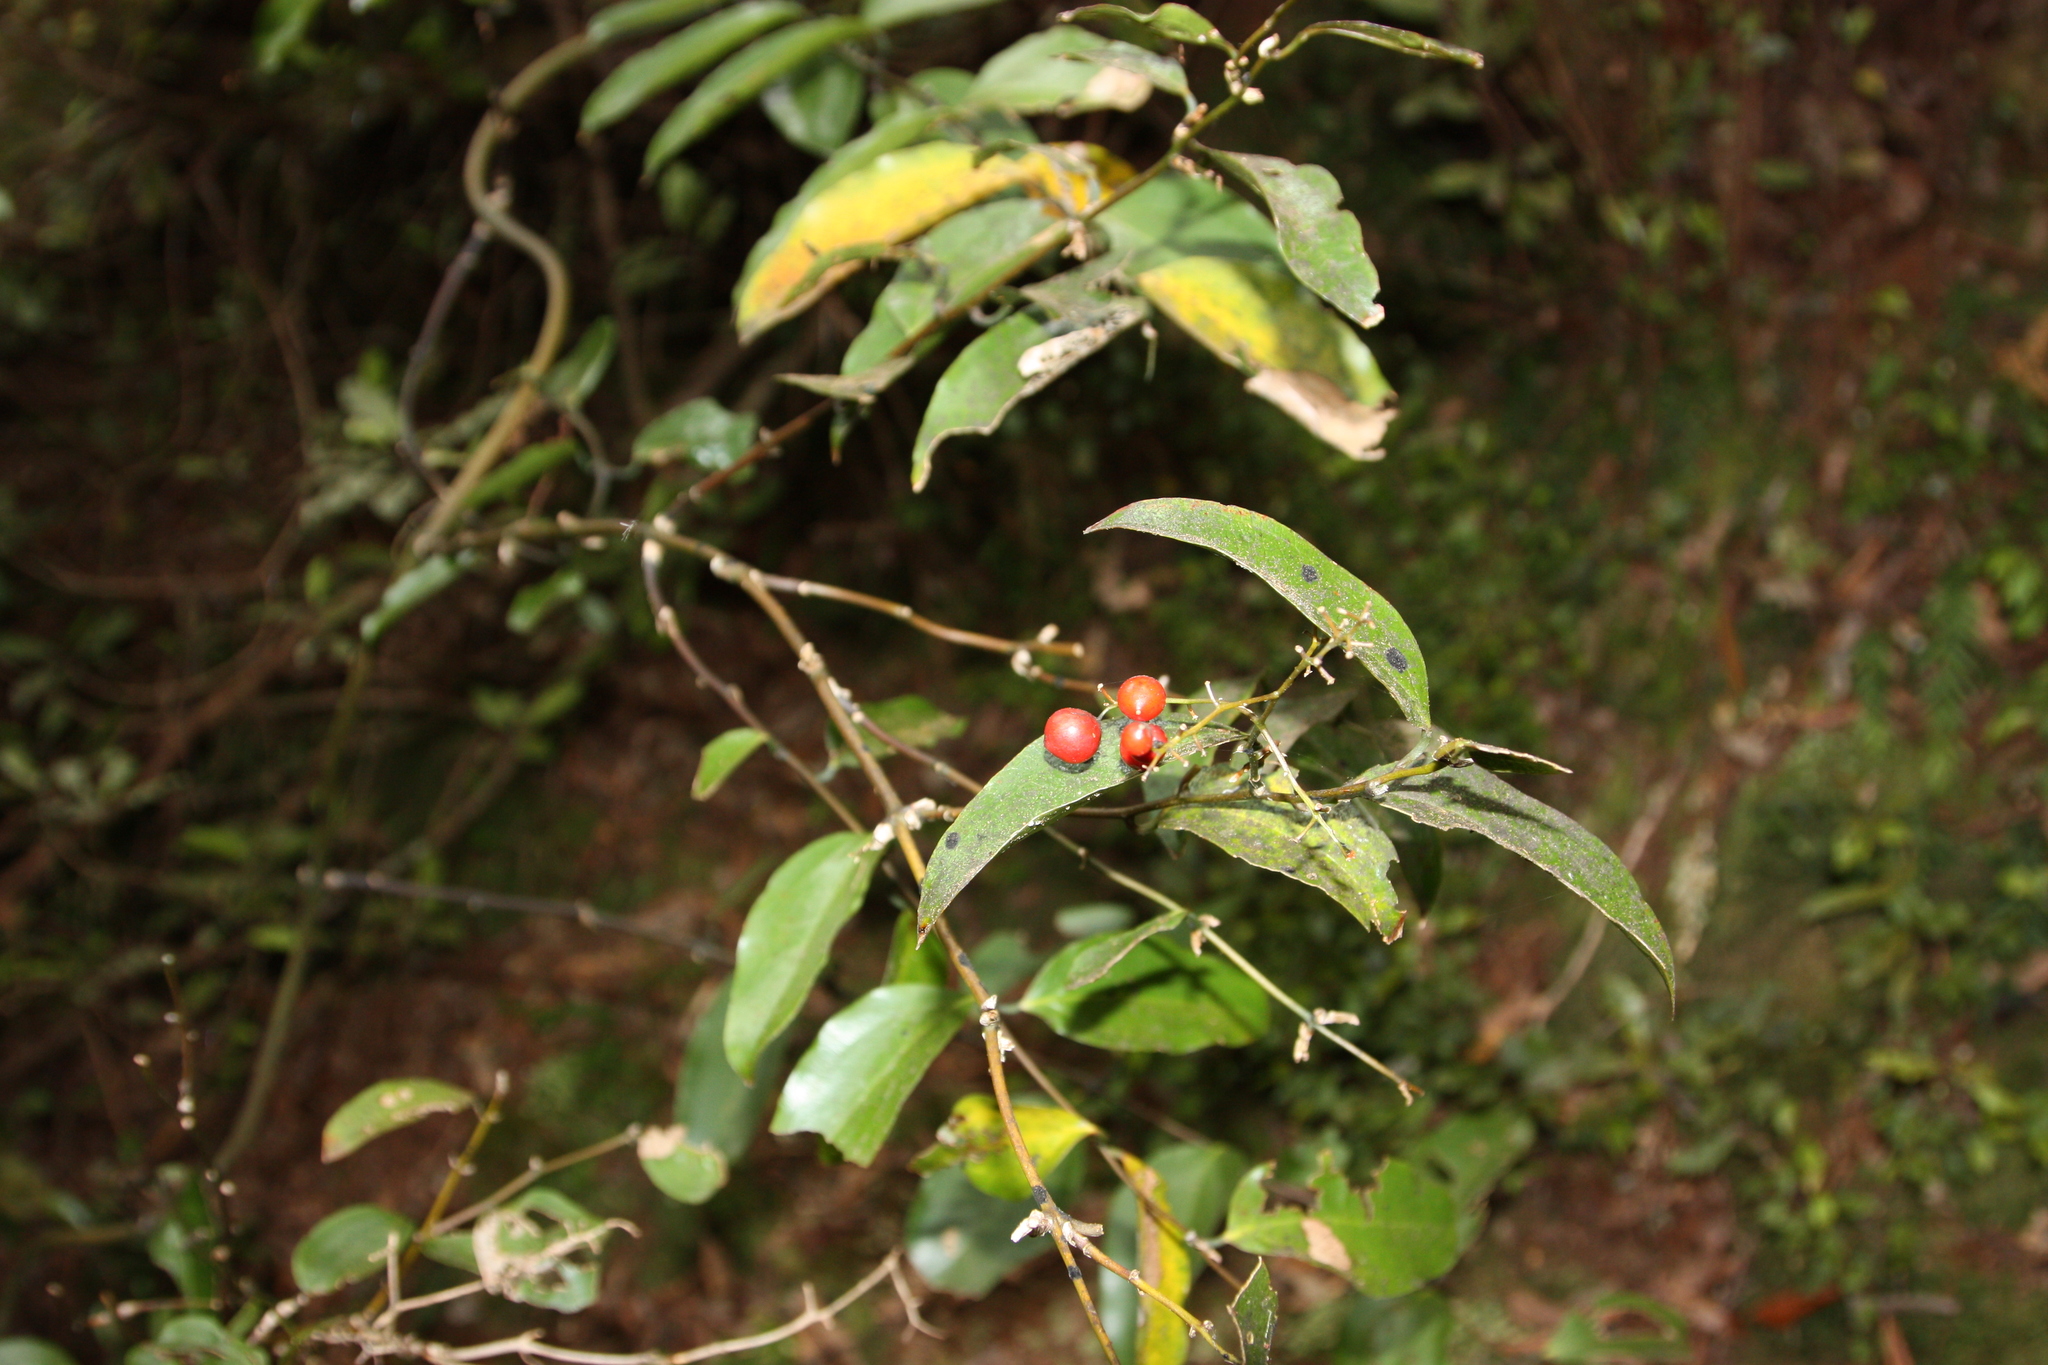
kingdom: Plantae
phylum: Tracheophyta
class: Liliopsida
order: Liliales
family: Ripogonaceae
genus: Ripogonum
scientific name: Ripogonum scandens
